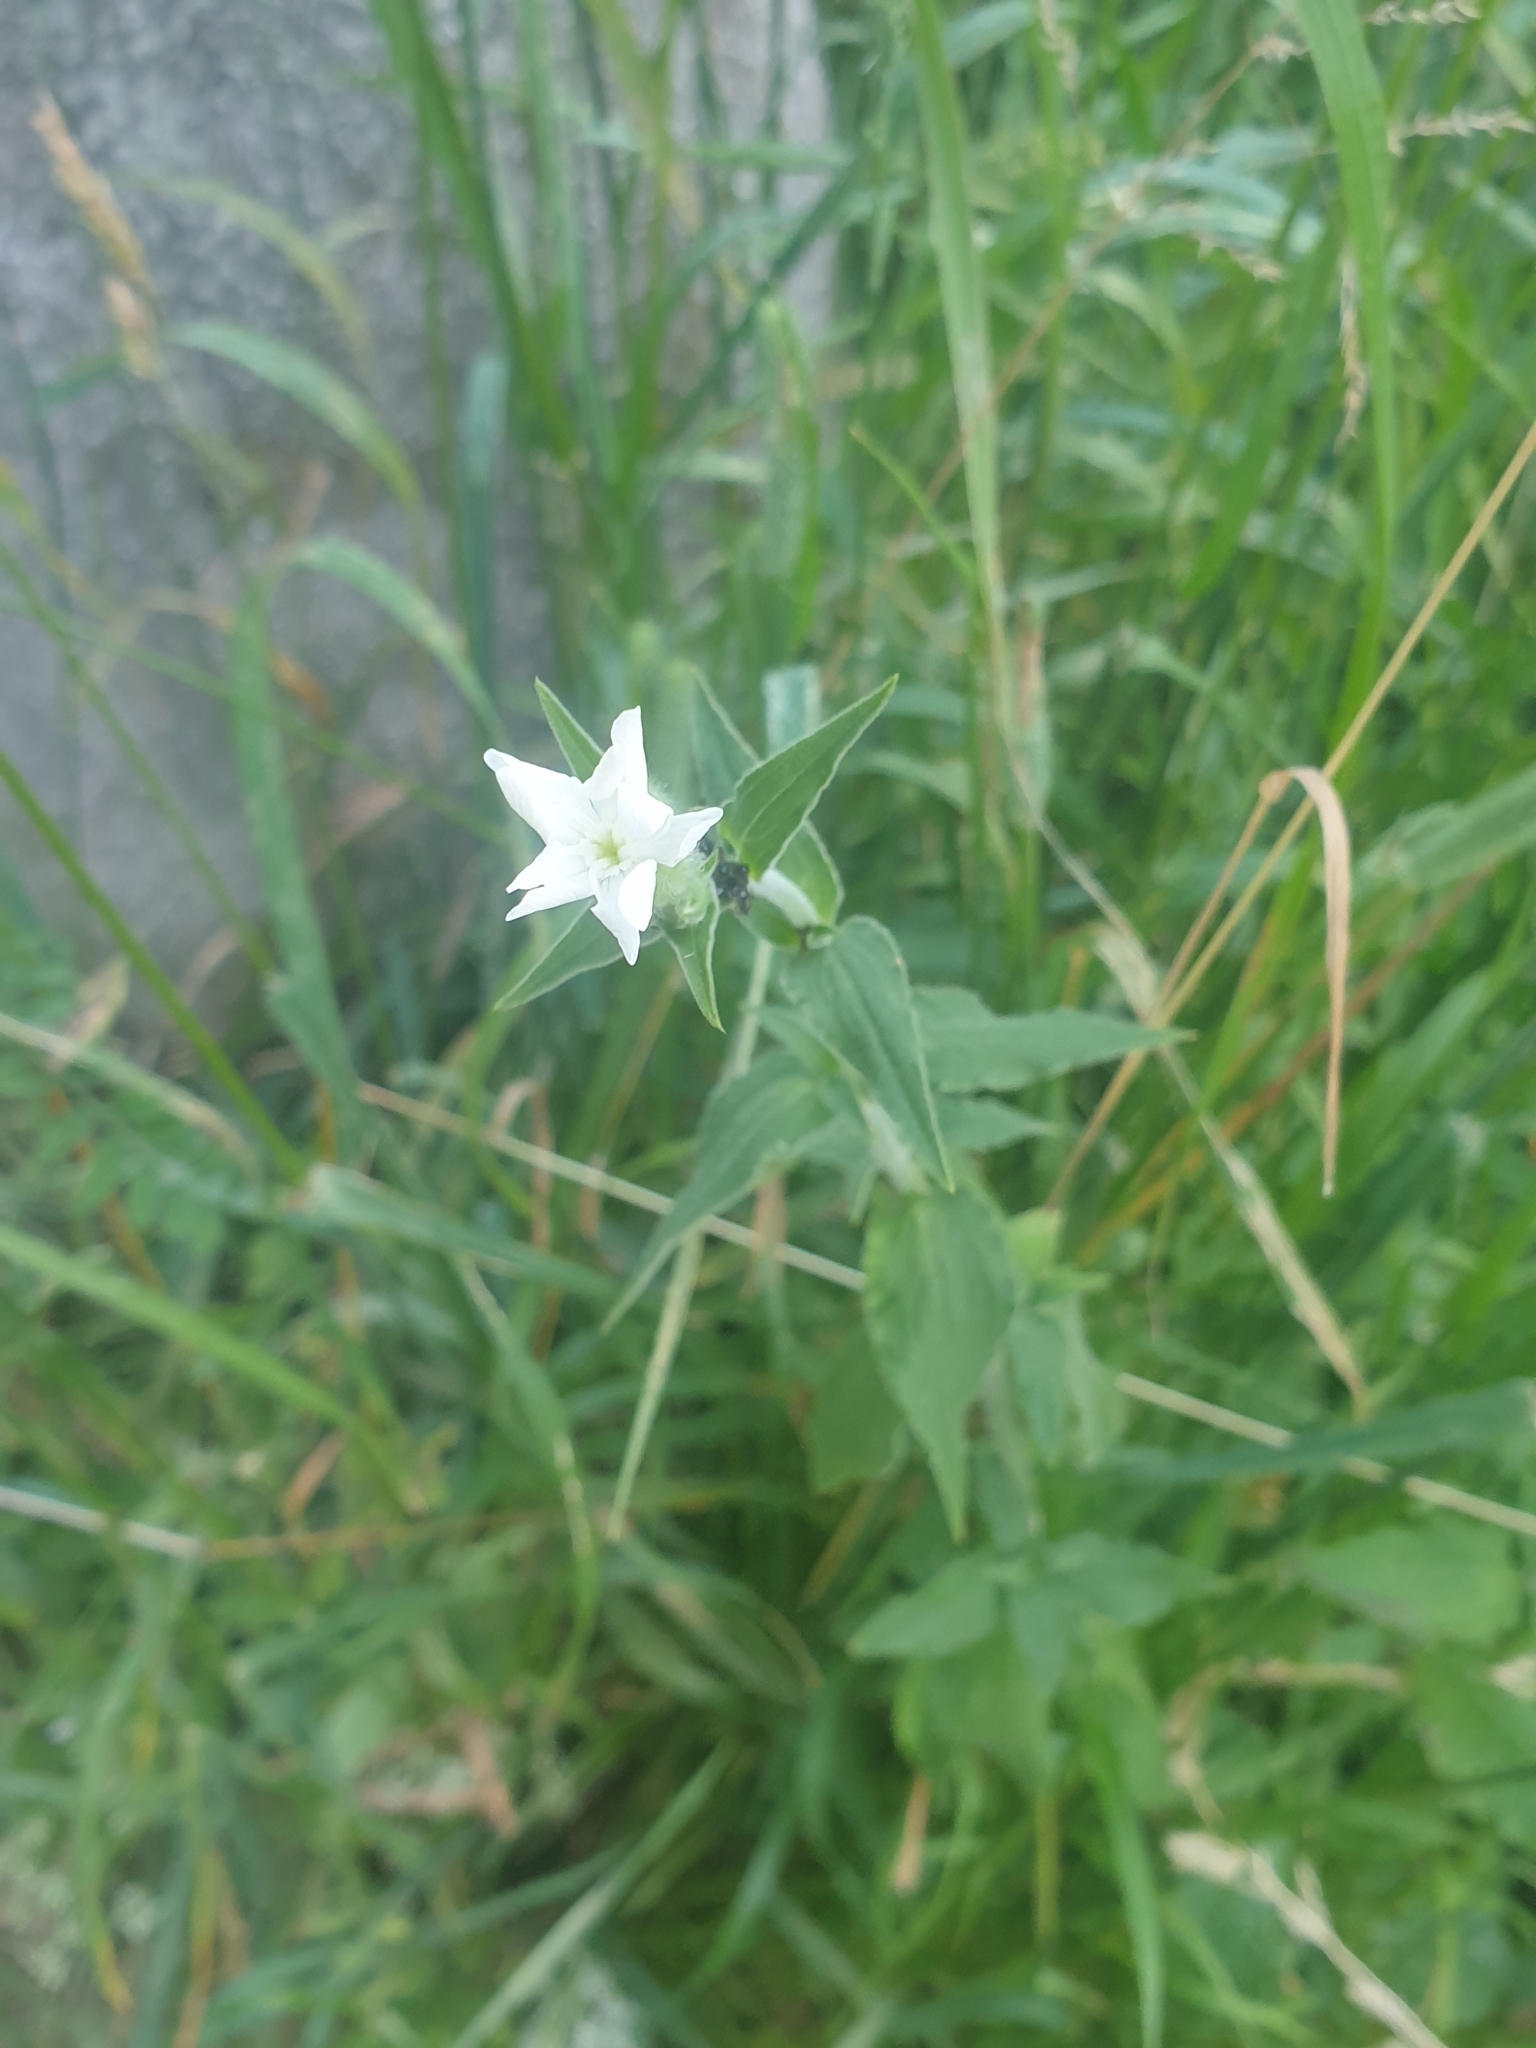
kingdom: Plantae
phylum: Tracheophyta
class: Magnoliopsida
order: Caryophyllales
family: Caryophyllaceae
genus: Silene
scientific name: Silene latifolia
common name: White campion
